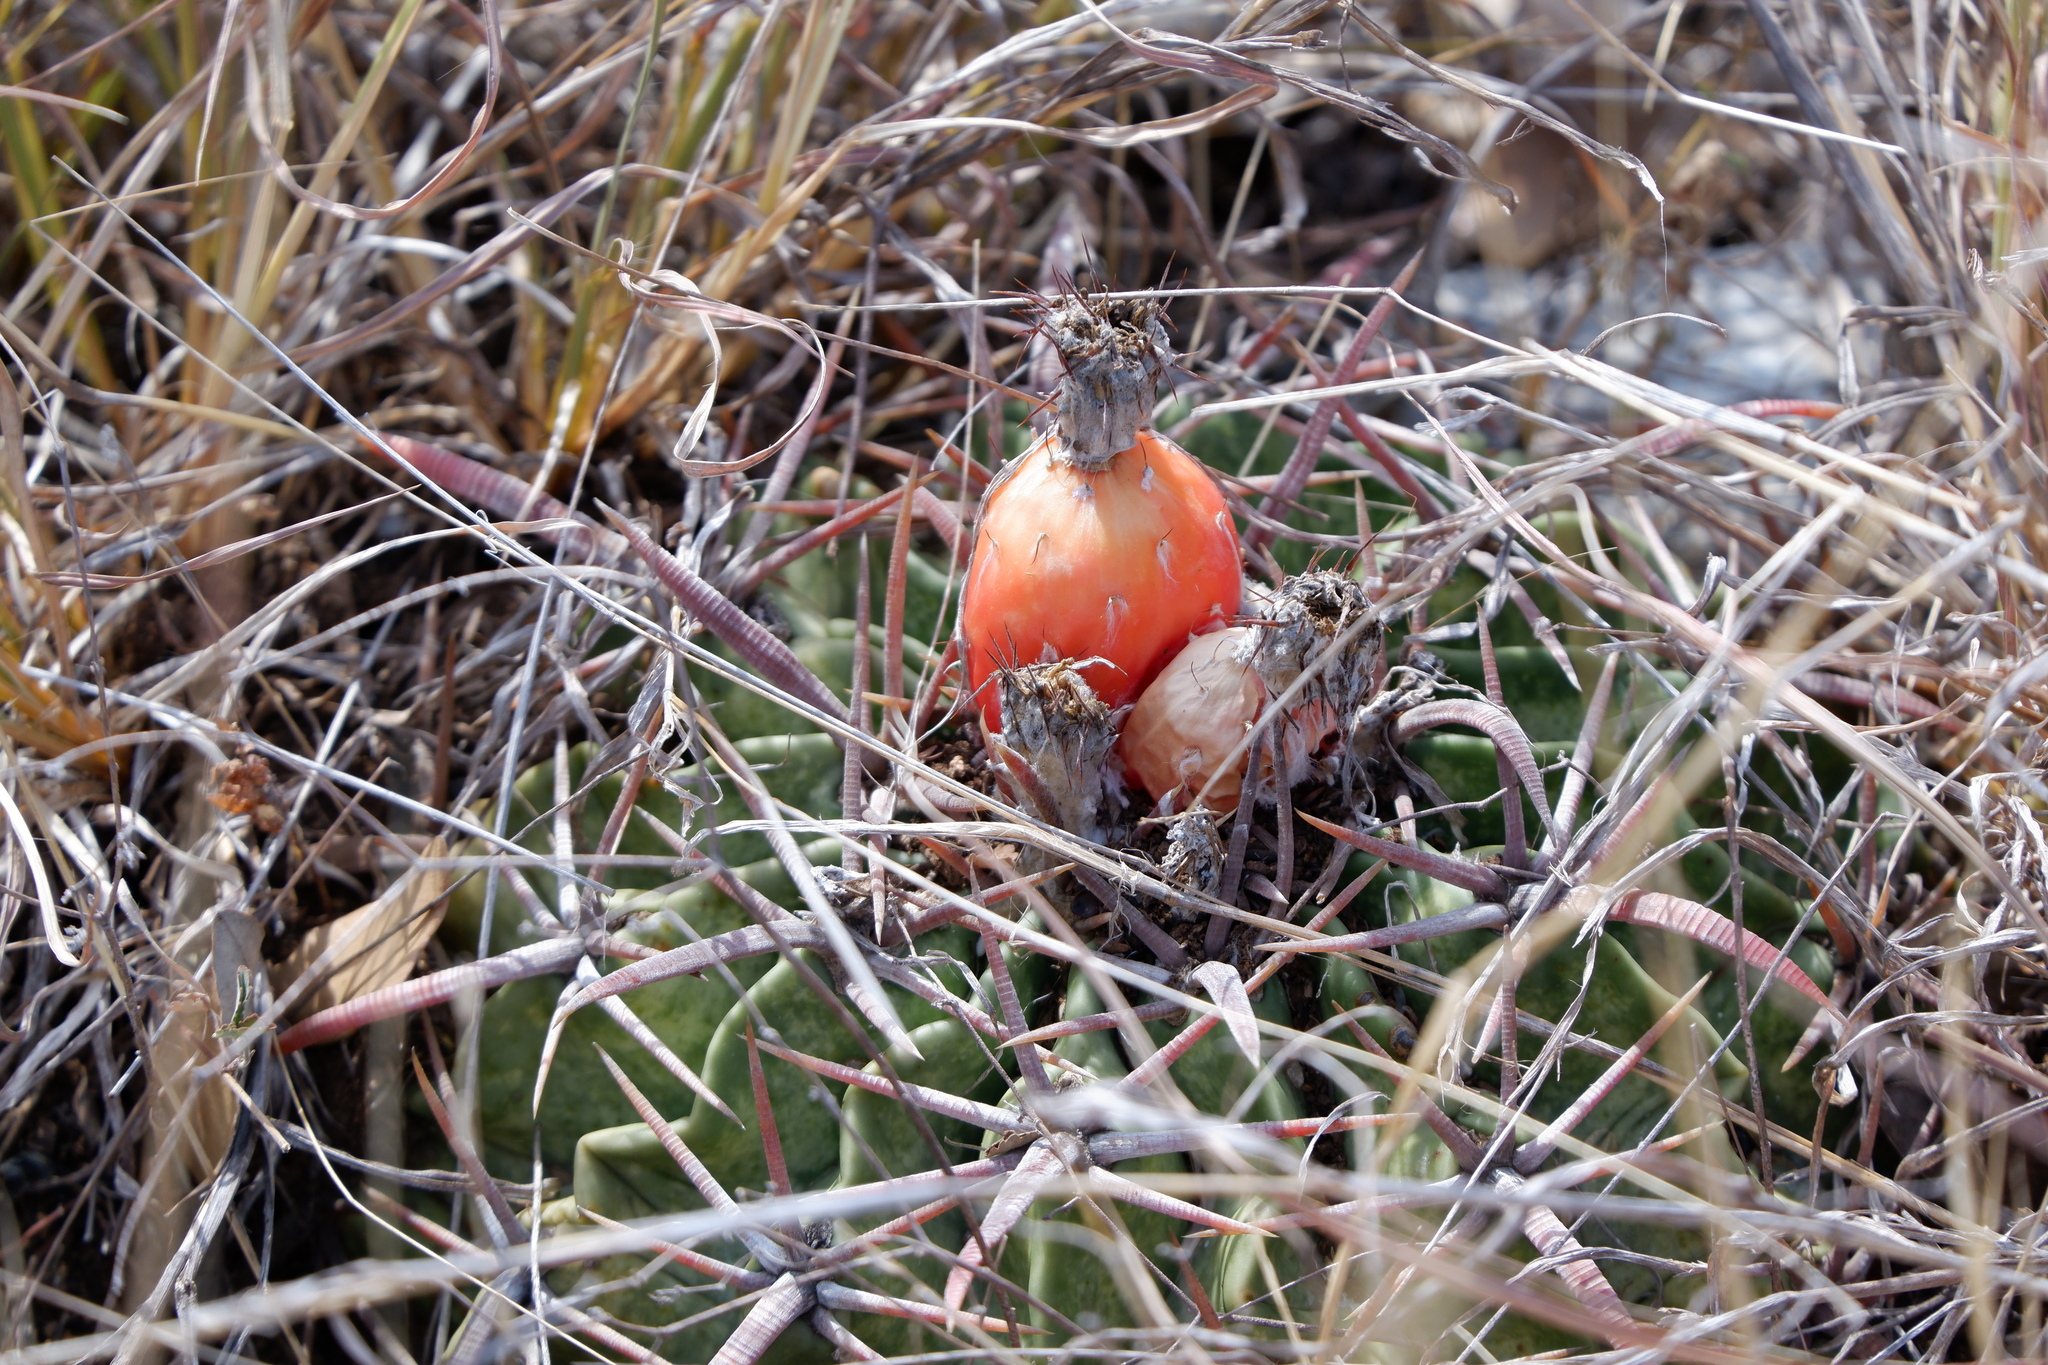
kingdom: Plantae
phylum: Tracheophyta
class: Magnoliopsida
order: Caryophyllales
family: Cactaceae
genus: Echinocactus
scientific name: Echinocactus texensis
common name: Devil's pincushion
